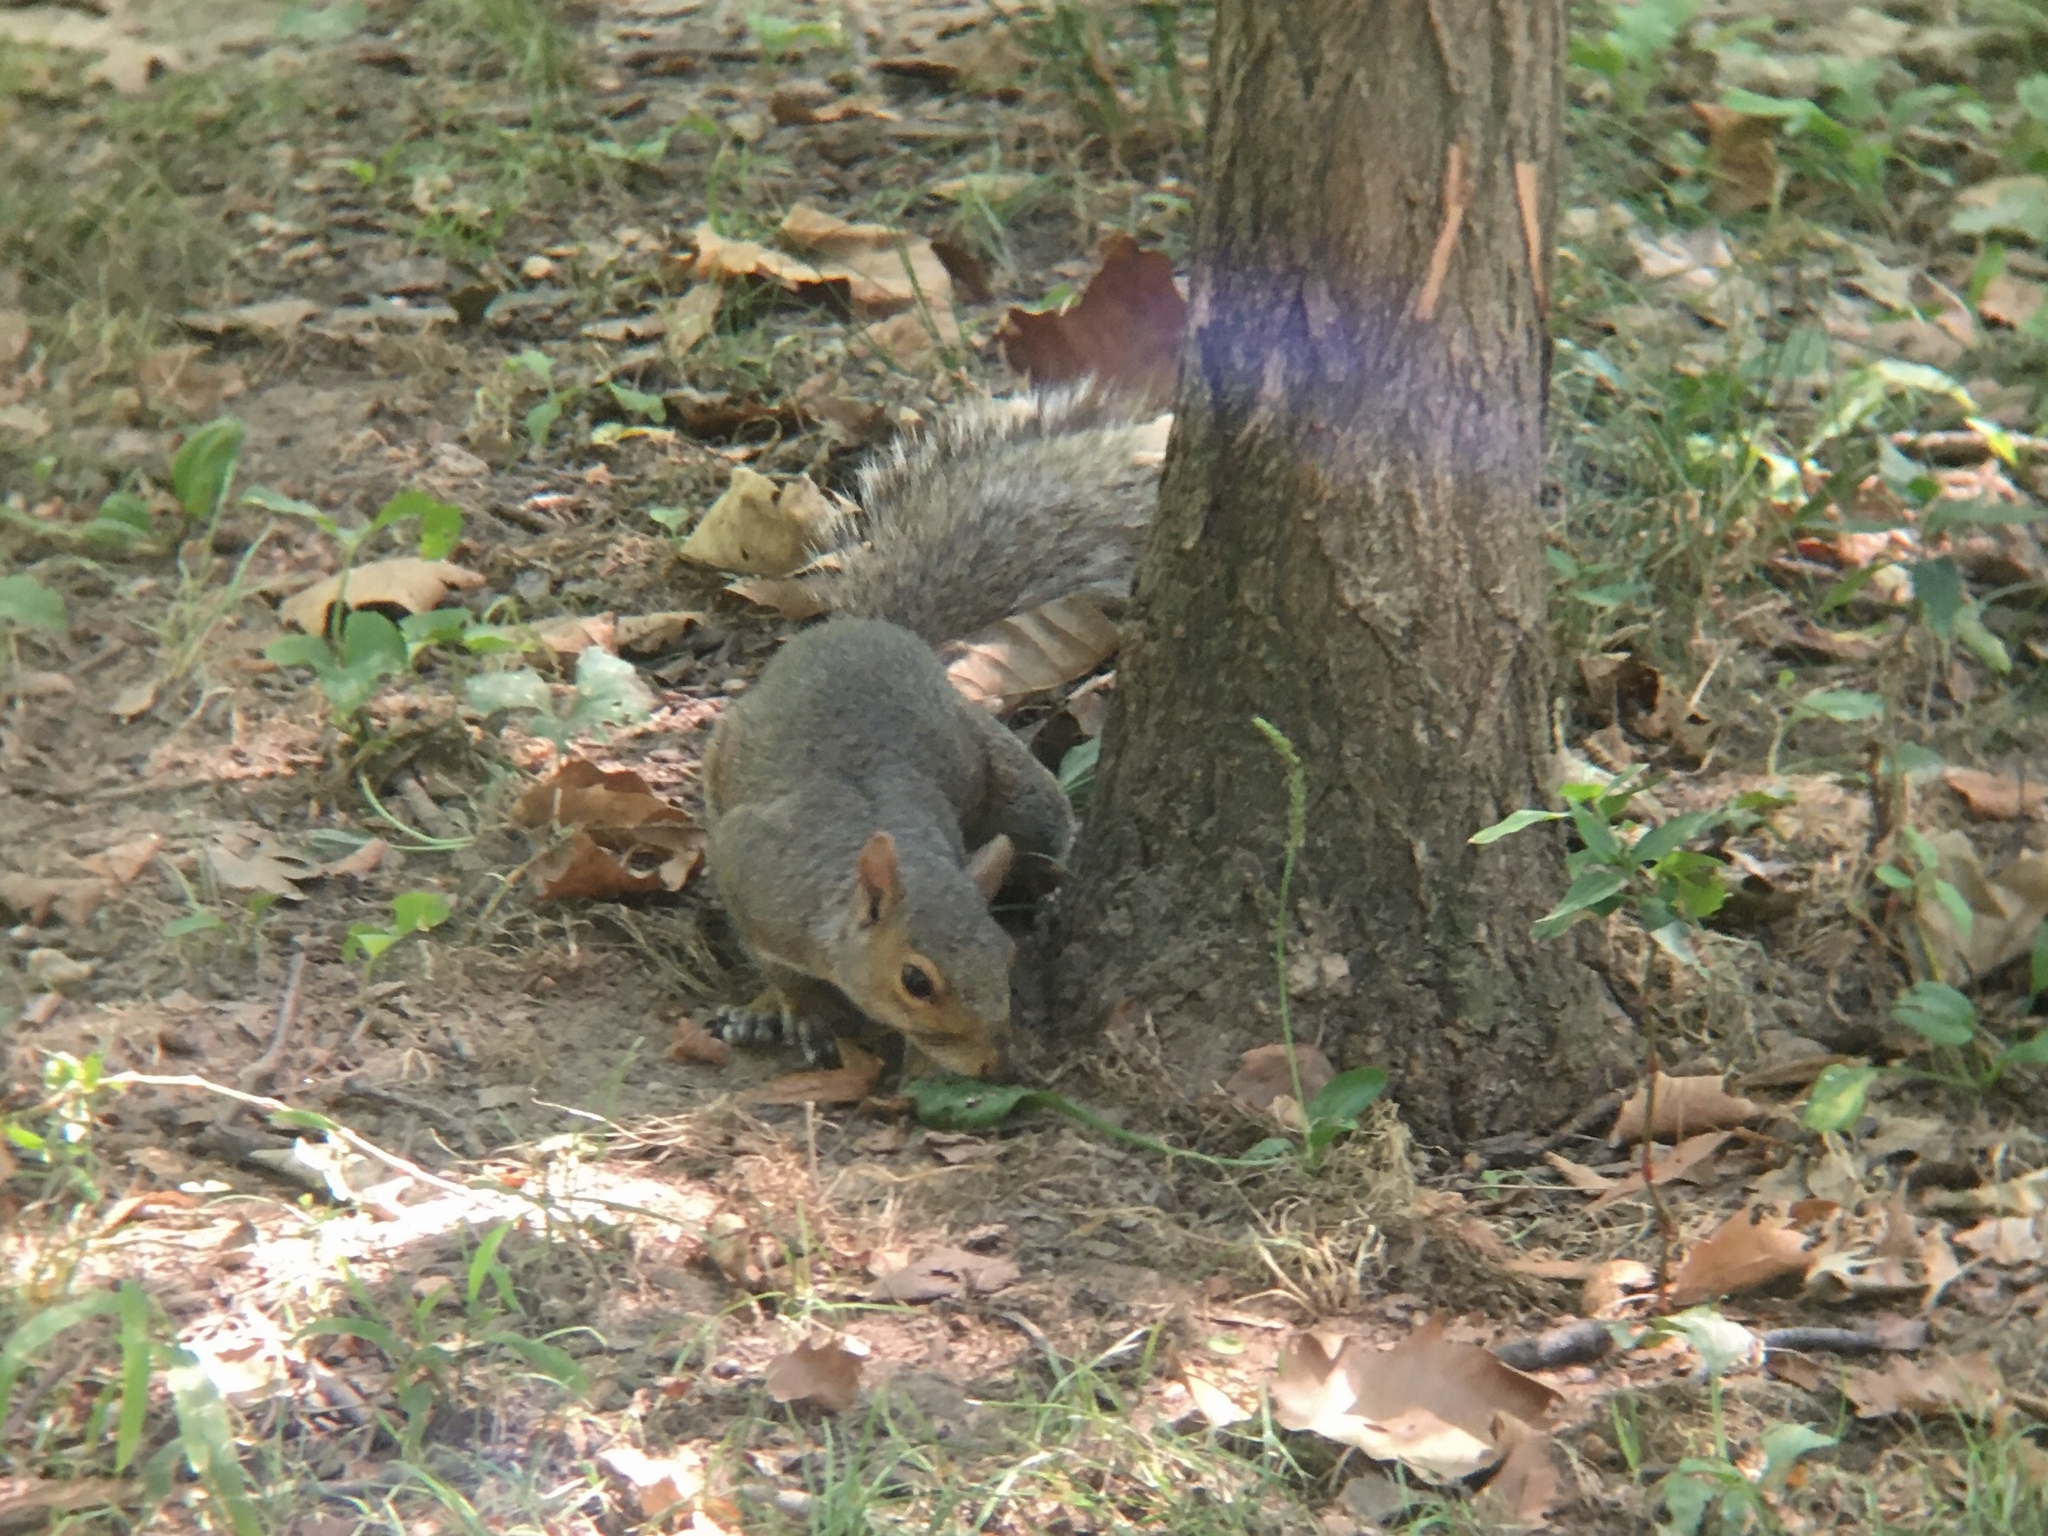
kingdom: Animalia
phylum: Chordata
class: Mammalia
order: Rodentia
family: Sciuridae
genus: Sciurus
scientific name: Sciurus carolinensis
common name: Eastern gray squirrel
